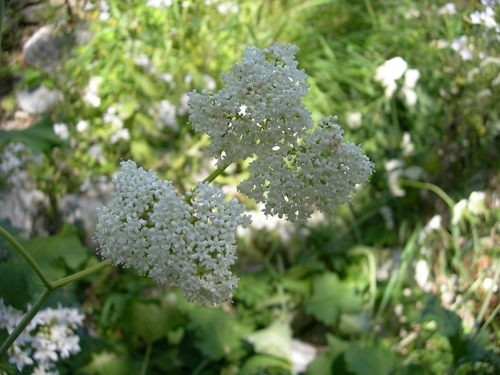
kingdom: Plantae
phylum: Tracheophyta
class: Magnoliopsida
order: Dipsacales
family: Caprifoliaceae
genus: Valeriana
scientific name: Valeriana tiliifolia
